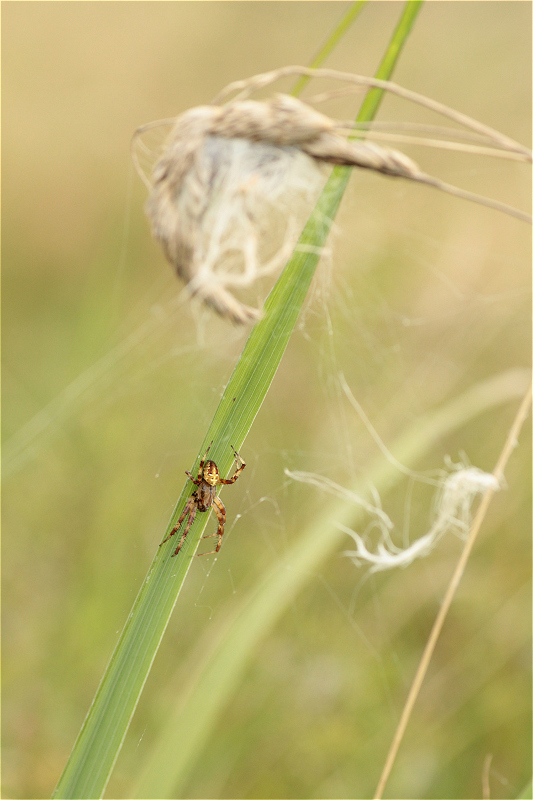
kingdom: Animalia
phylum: Arthropoda
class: Arachnida
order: Araneae
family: Araneidae
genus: Araneus
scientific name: Araneus quadratus
